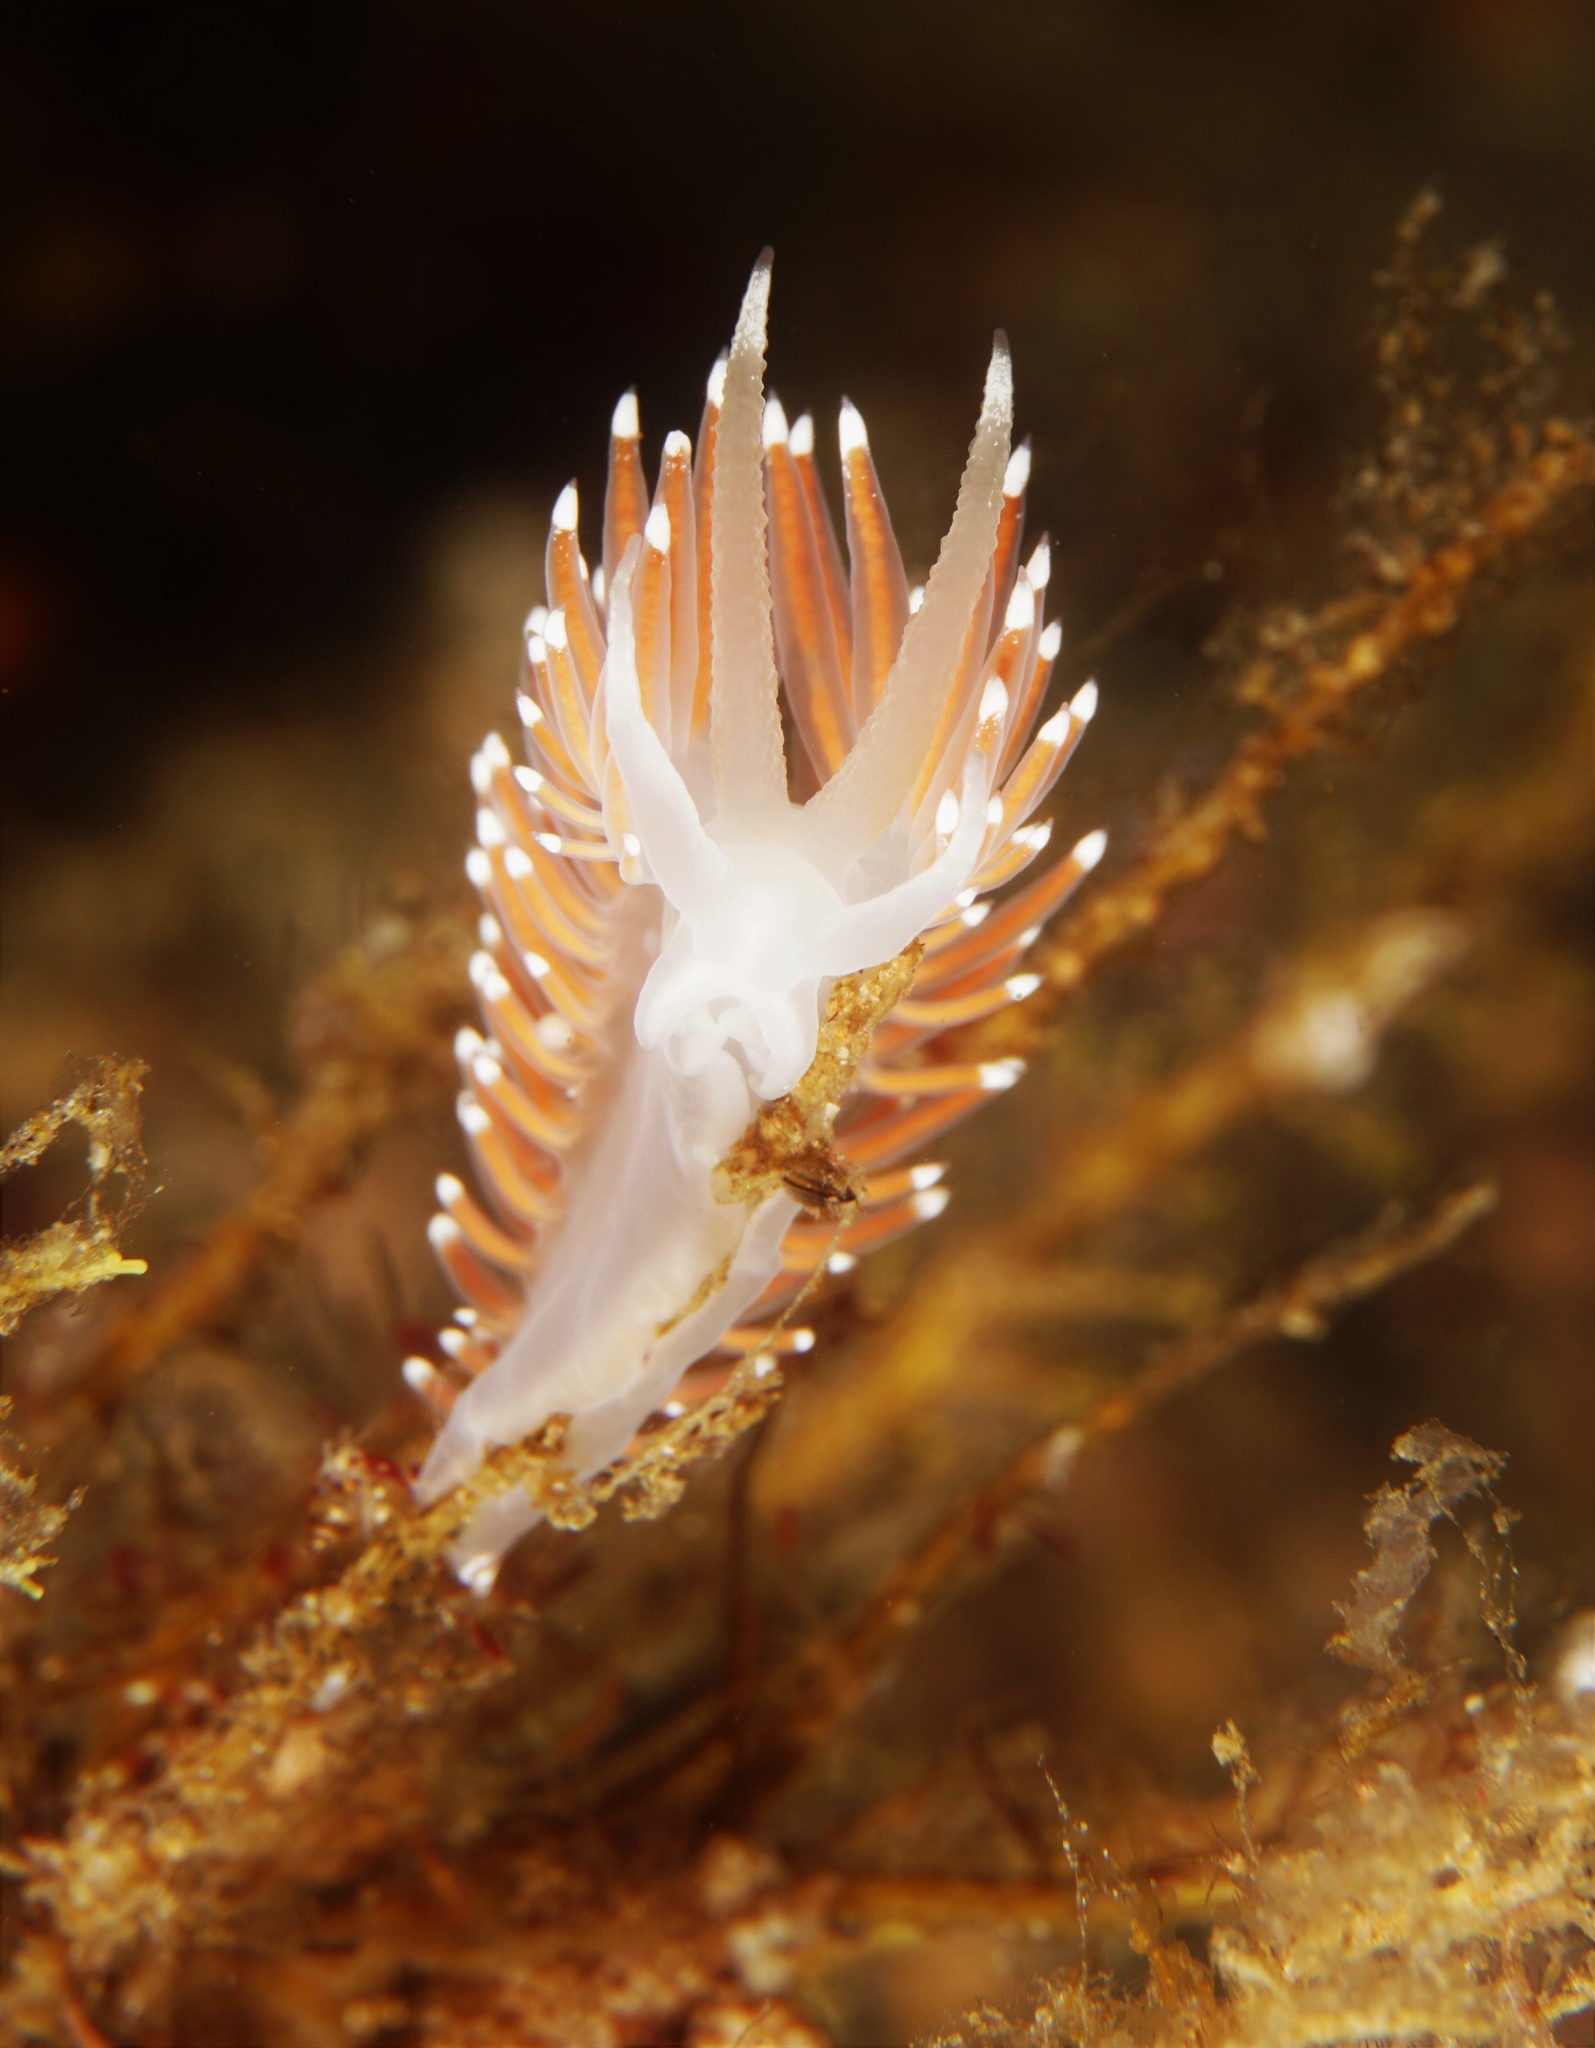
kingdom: Animalia
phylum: Mollusca
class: Gastropoda
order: Nudibranchia
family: Coryphellidae
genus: Coryphella
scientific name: Coryphella nobilis
